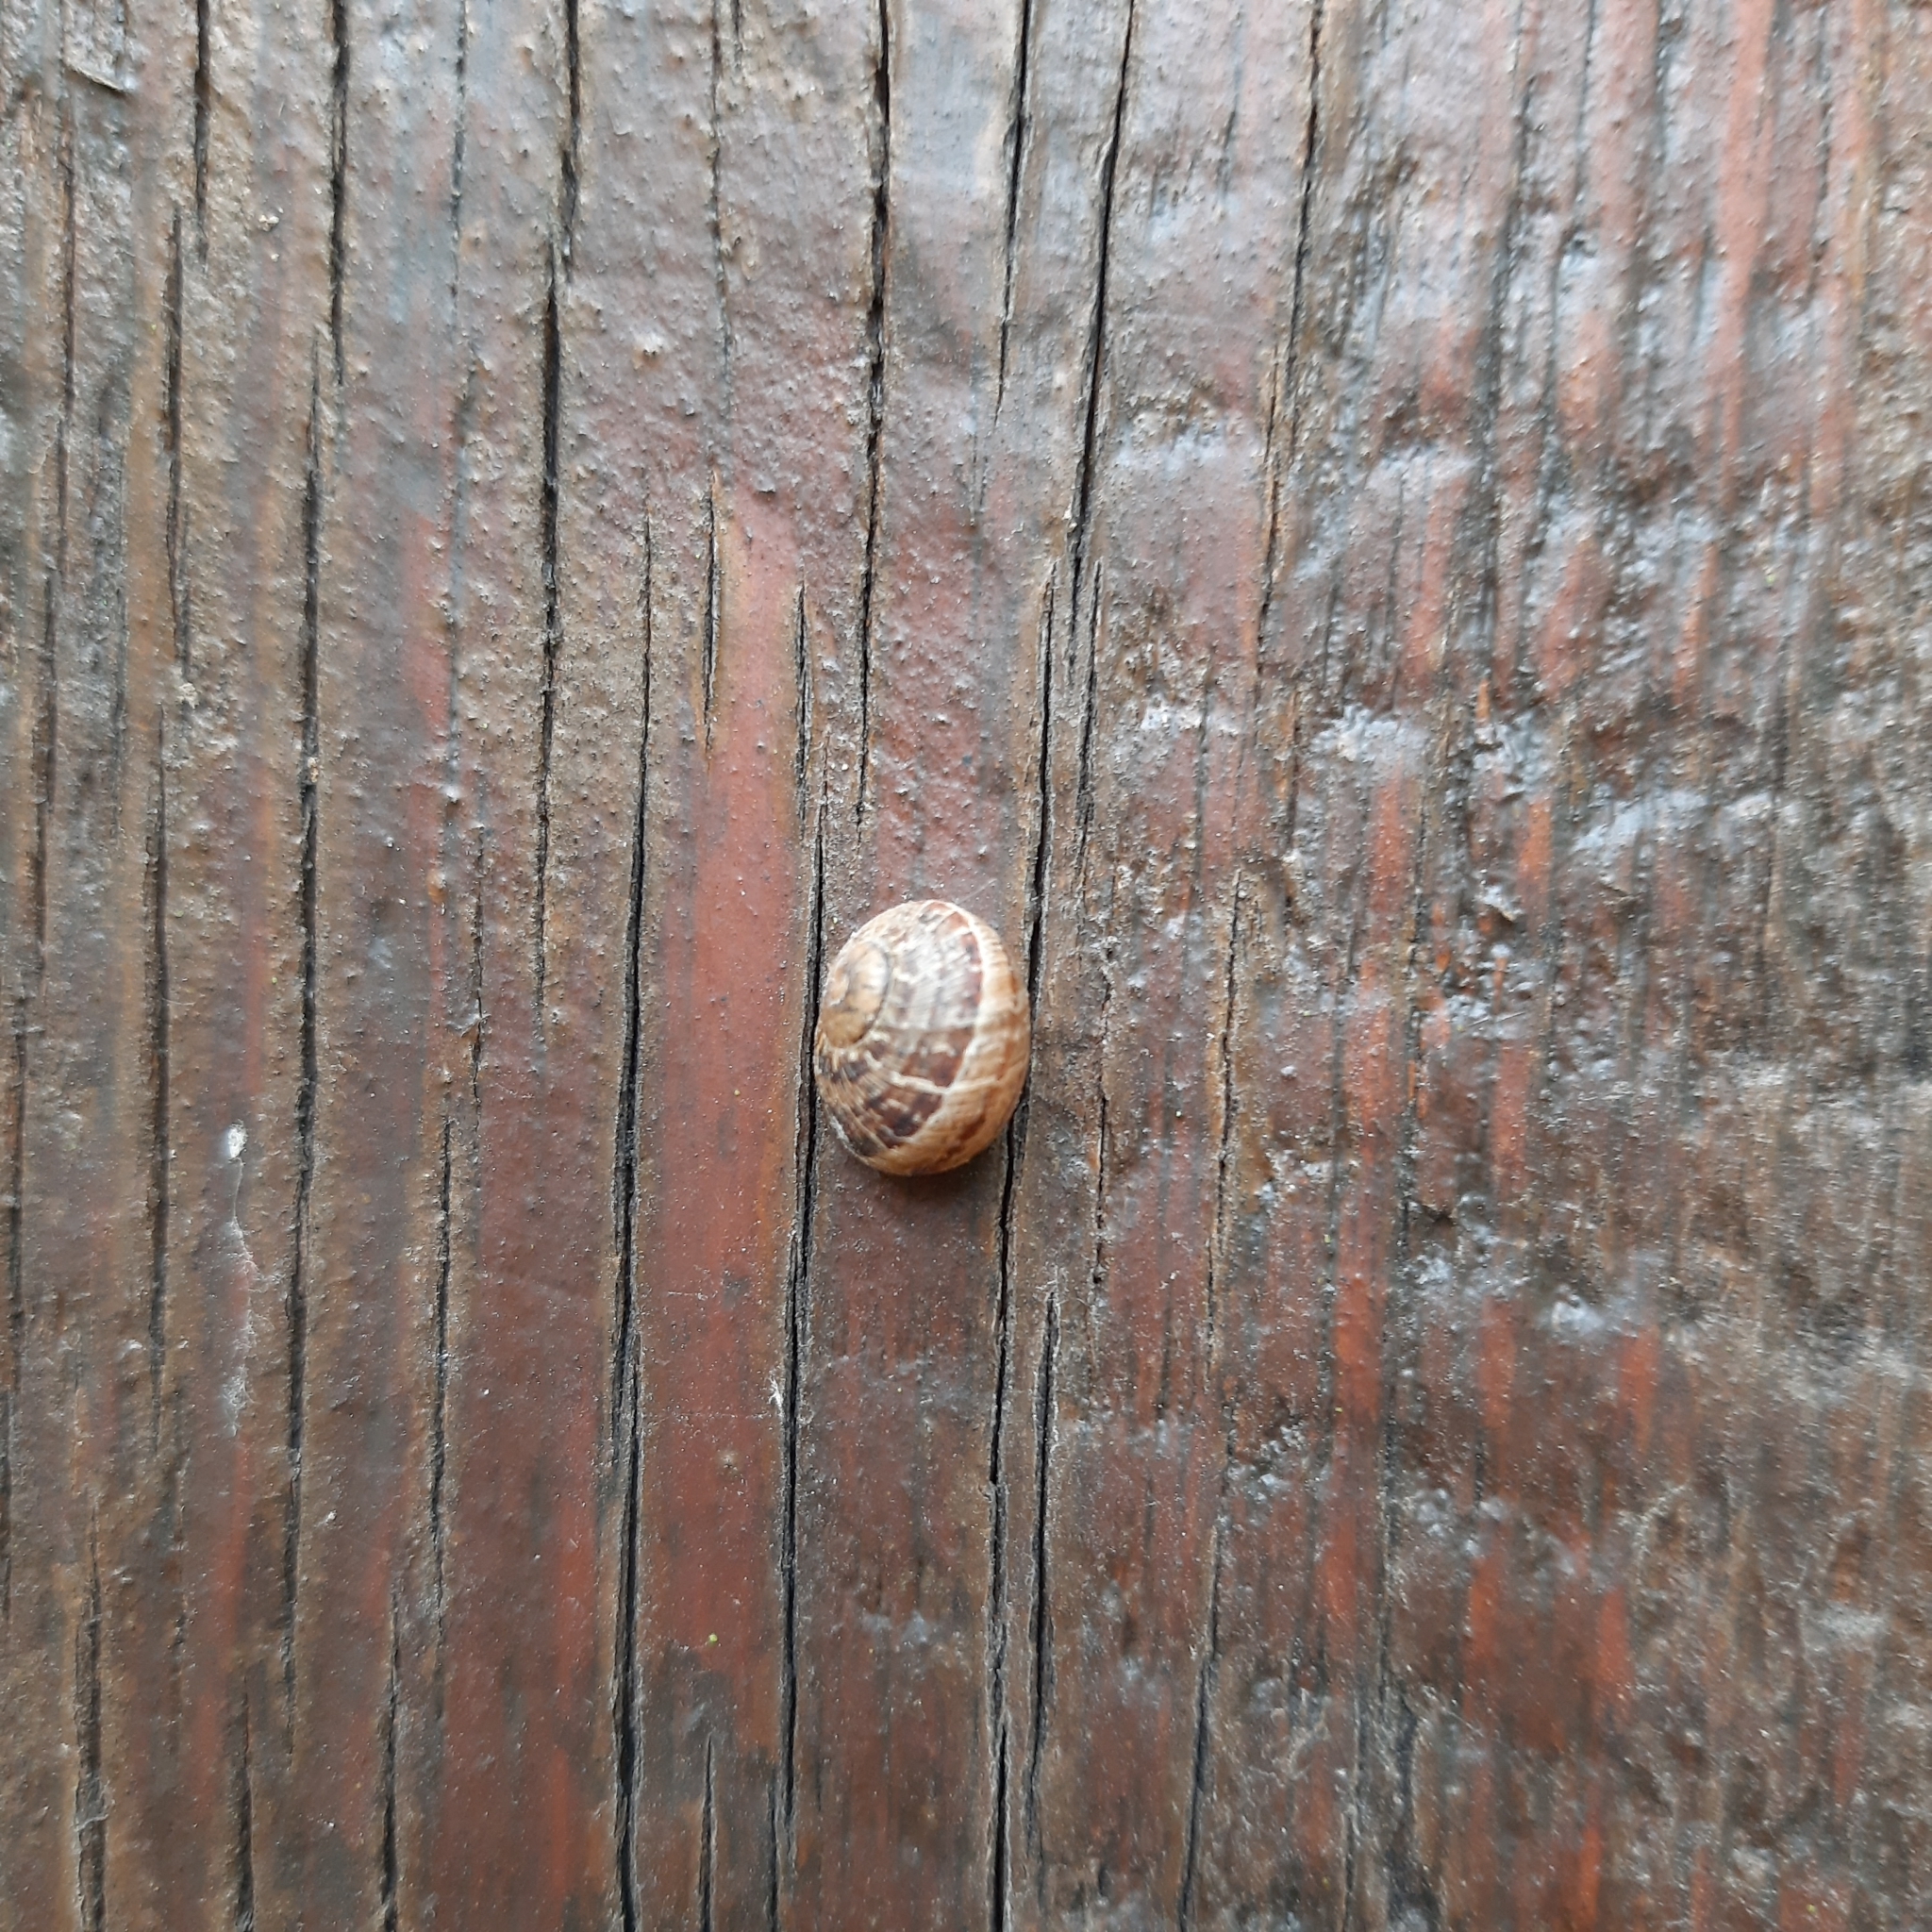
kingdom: Animalia
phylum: Mollusca
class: Gastropoda
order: Stylommatophora
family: Helicidae
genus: Cornu
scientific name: Cornu aspersum
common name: Brown garden snail
